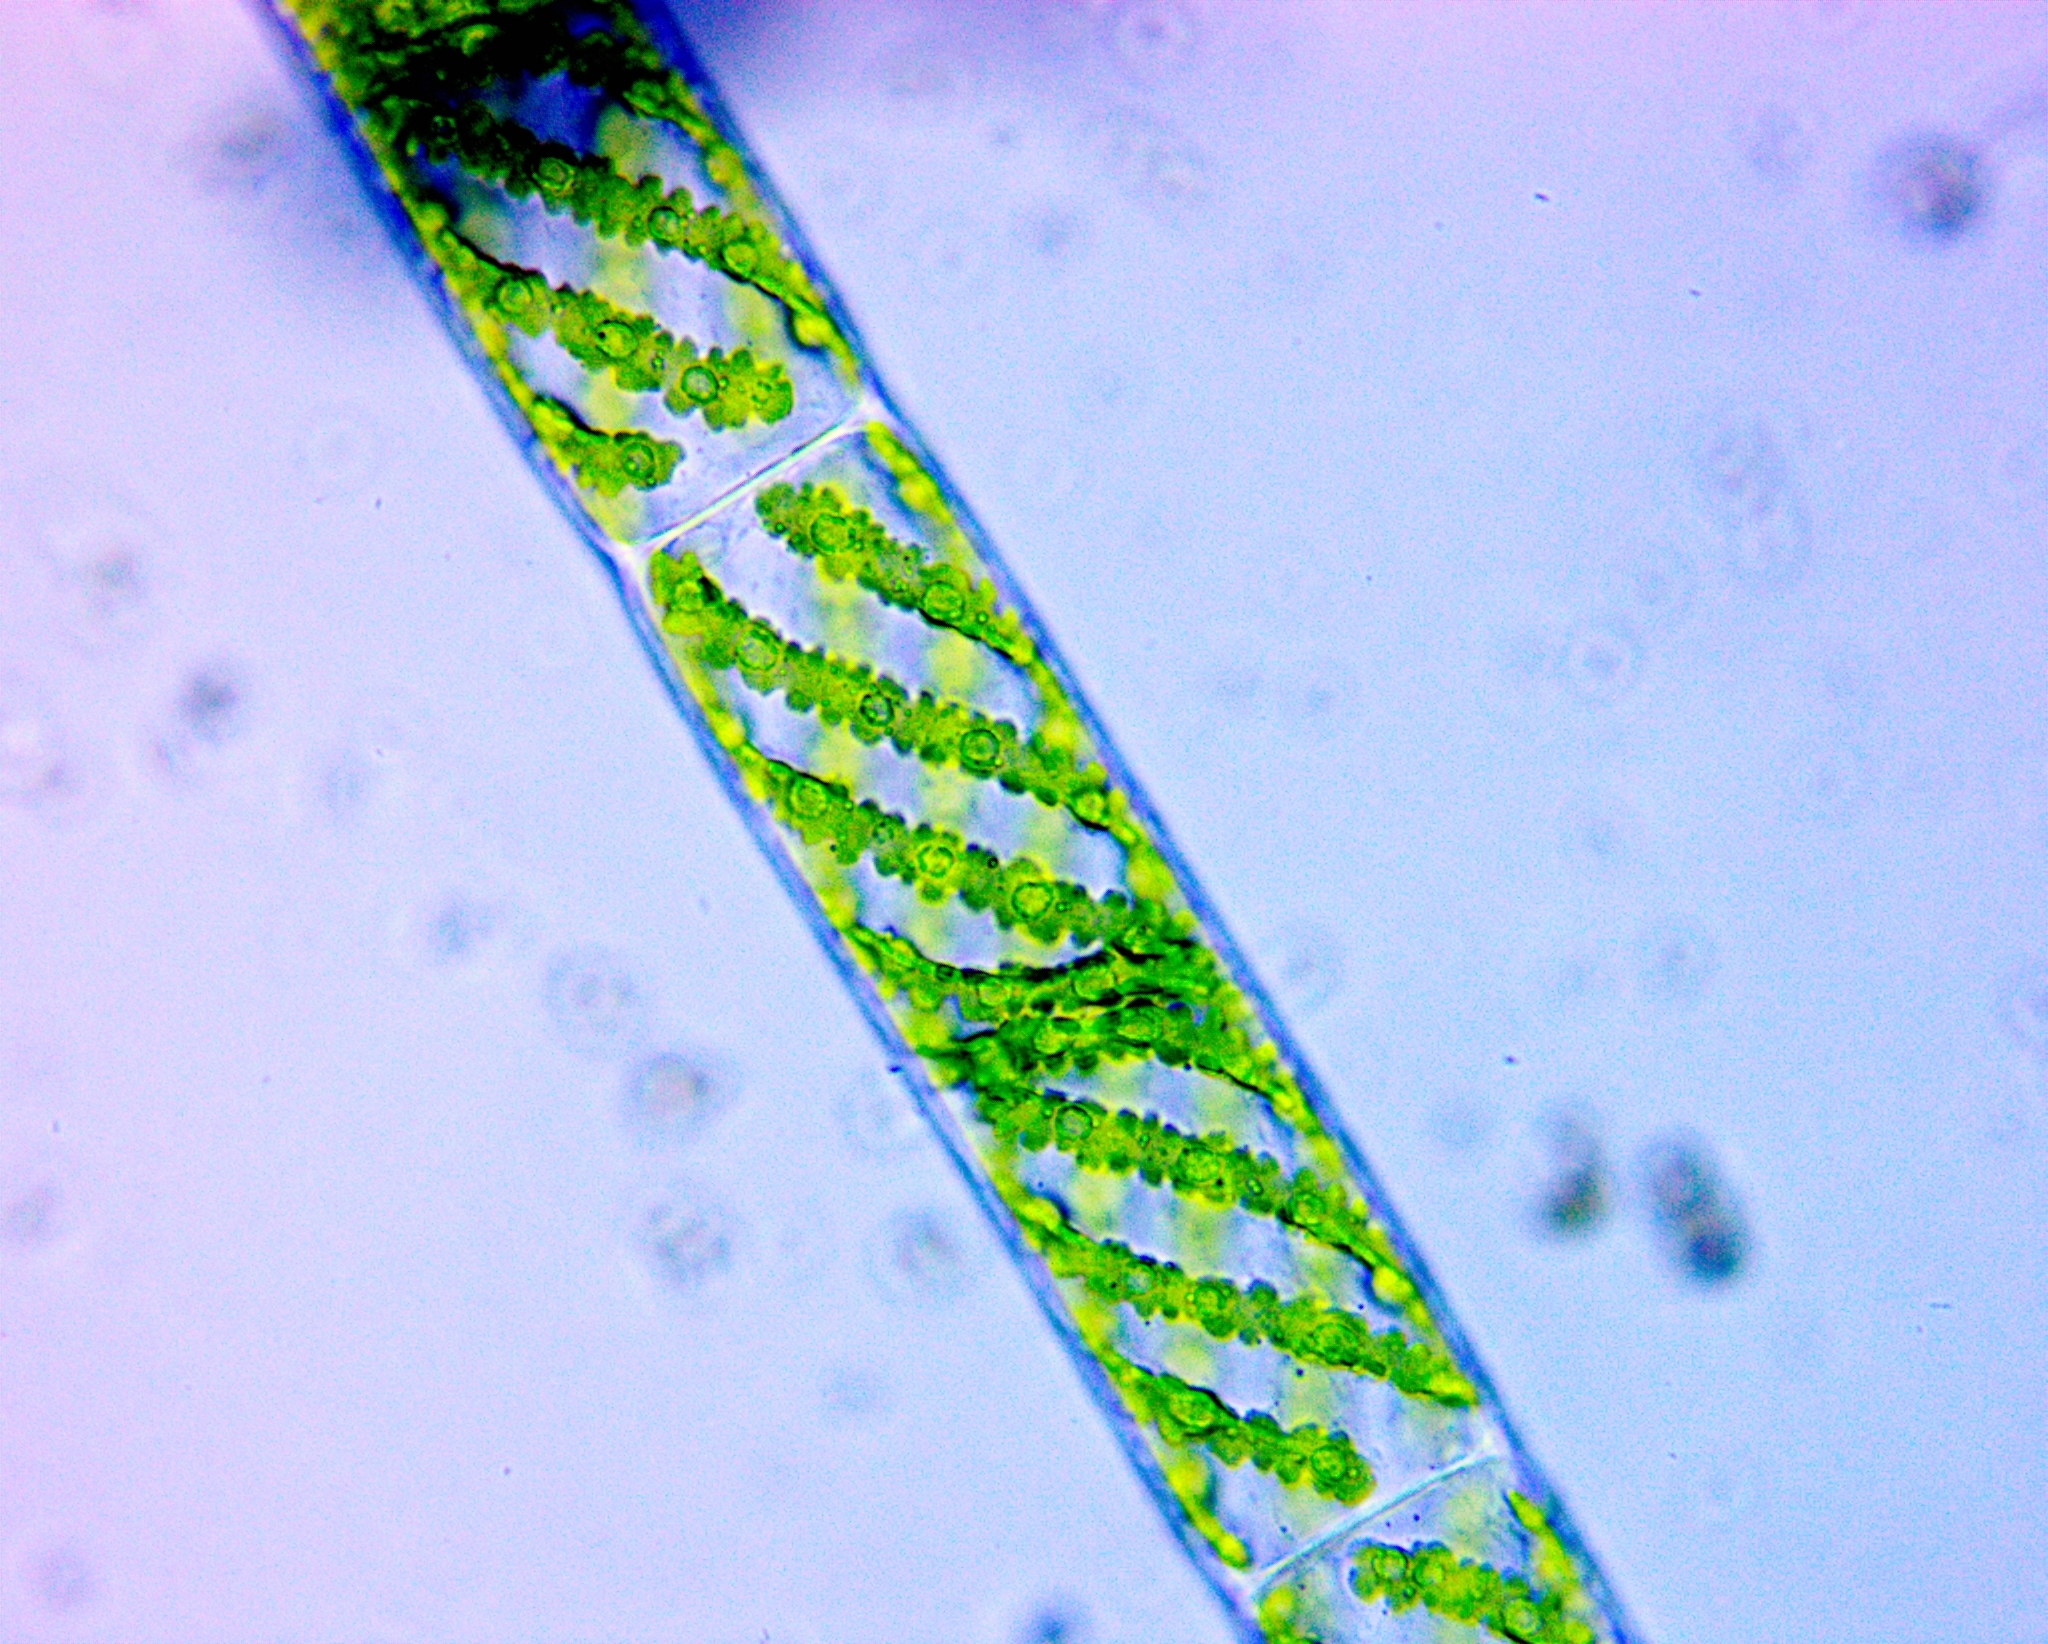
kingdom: Plantae
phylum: Charophyta
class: Zygnematophyceae
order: Zygnematales
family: Zygnemataceae
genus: Spirogyra
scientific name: Spirogyra
